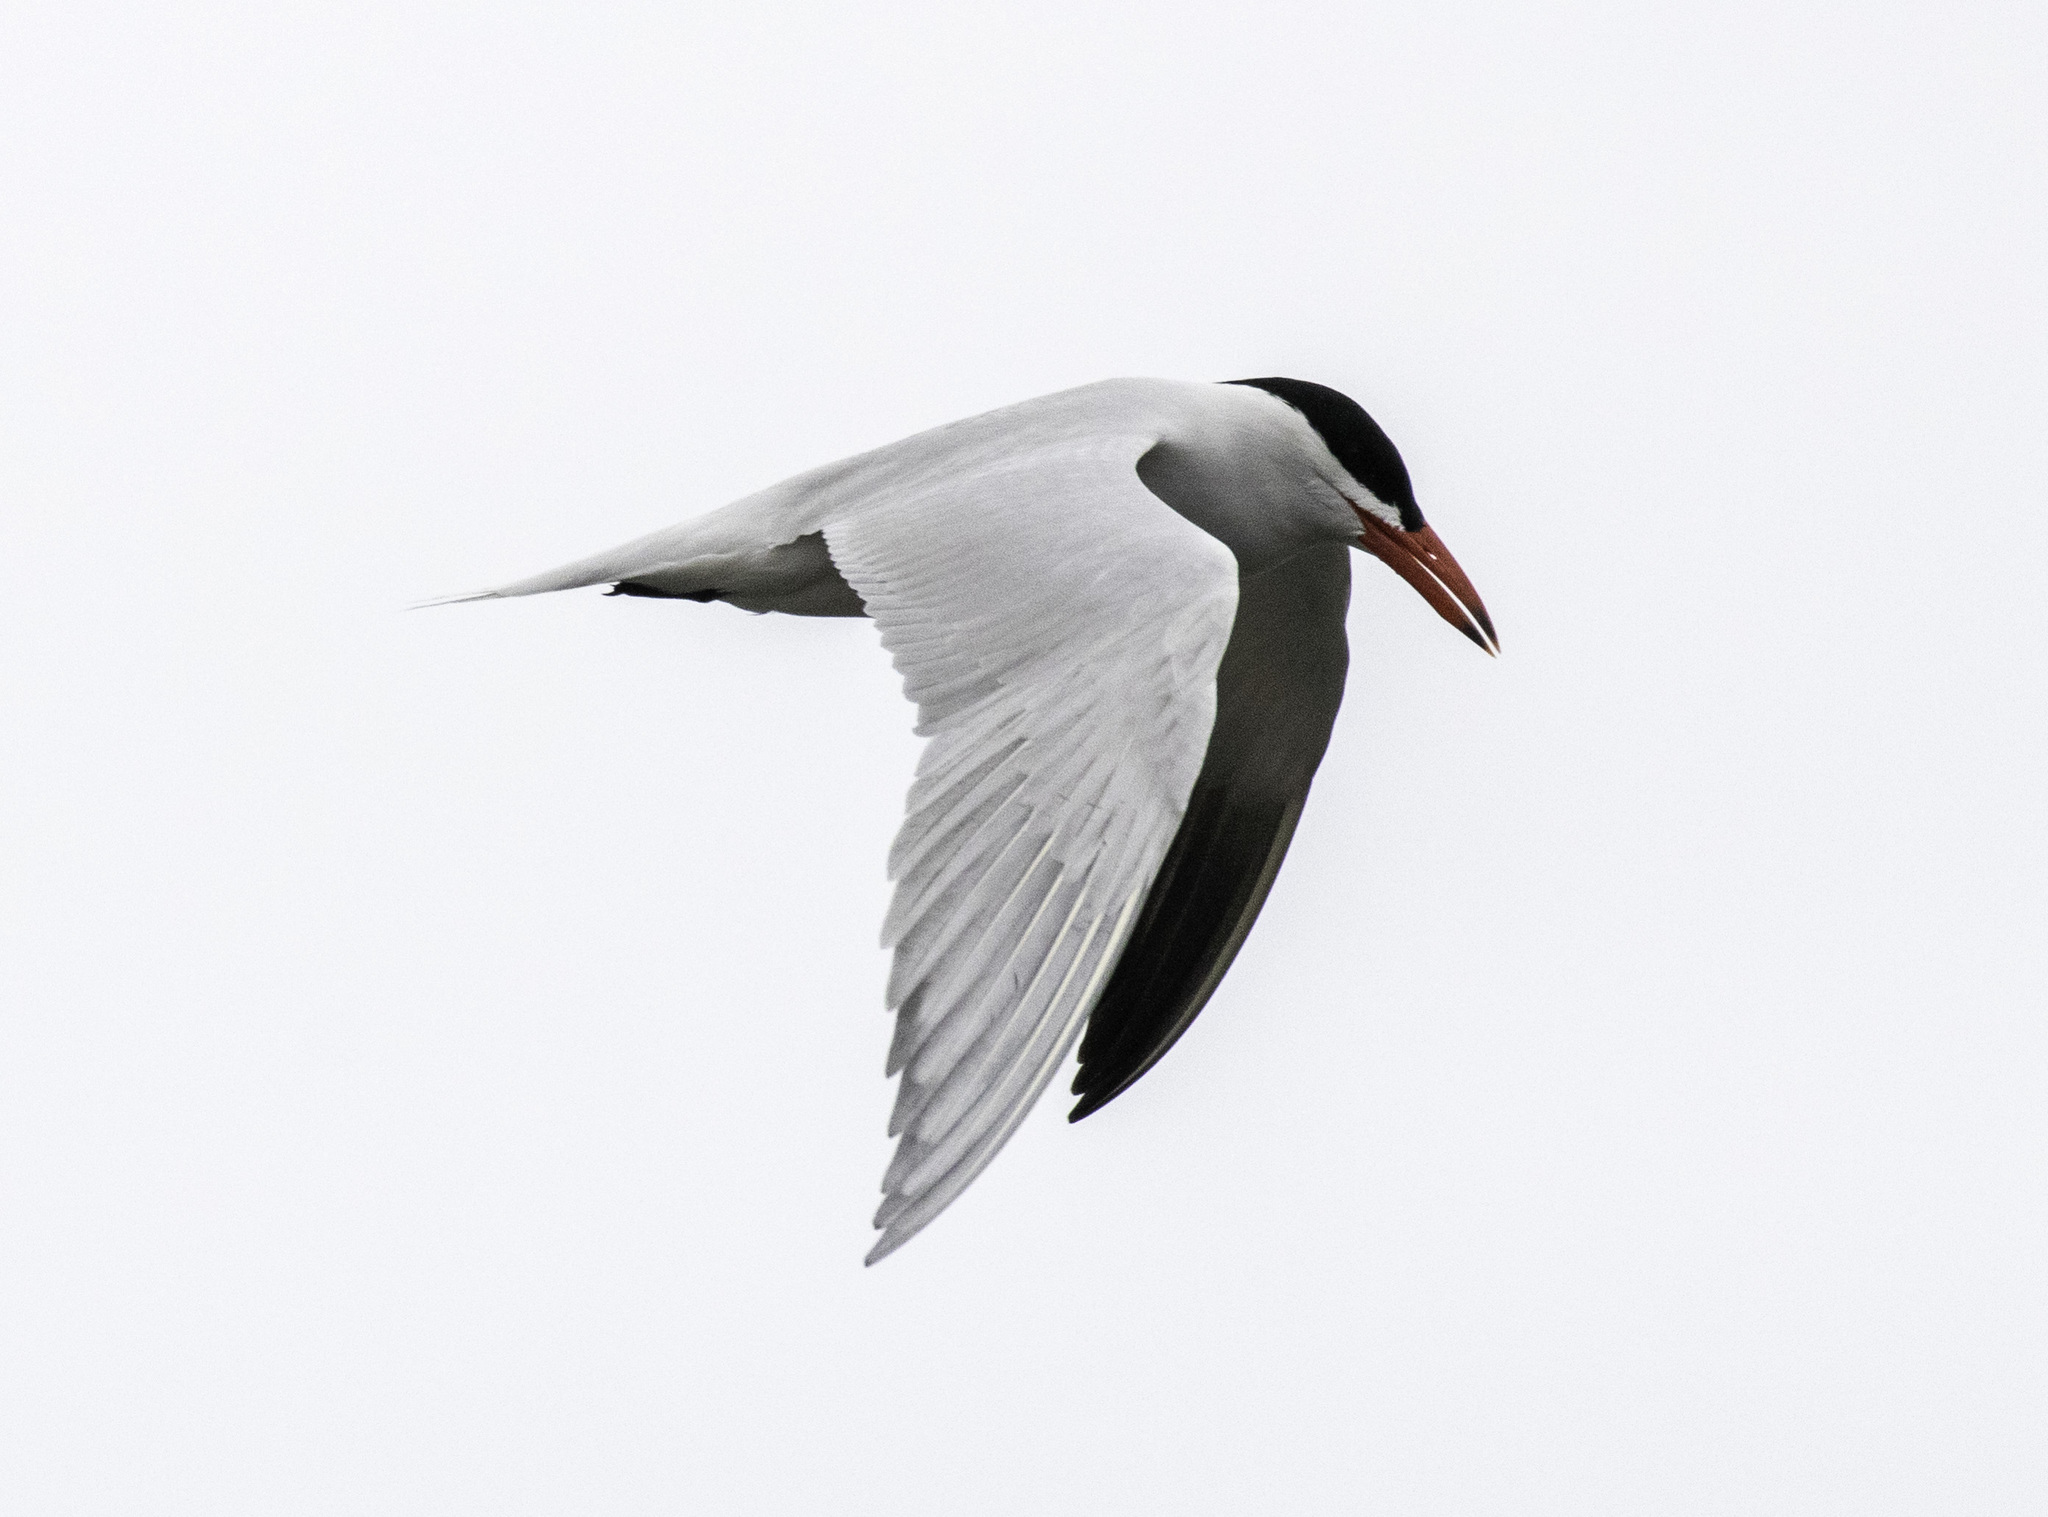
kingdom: Animalia
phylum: Chordata
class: Aves
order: Charadriiformes
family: Laridae
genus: Hydroprogne
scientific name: Hydroprogne caspia
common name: Caspian tern
